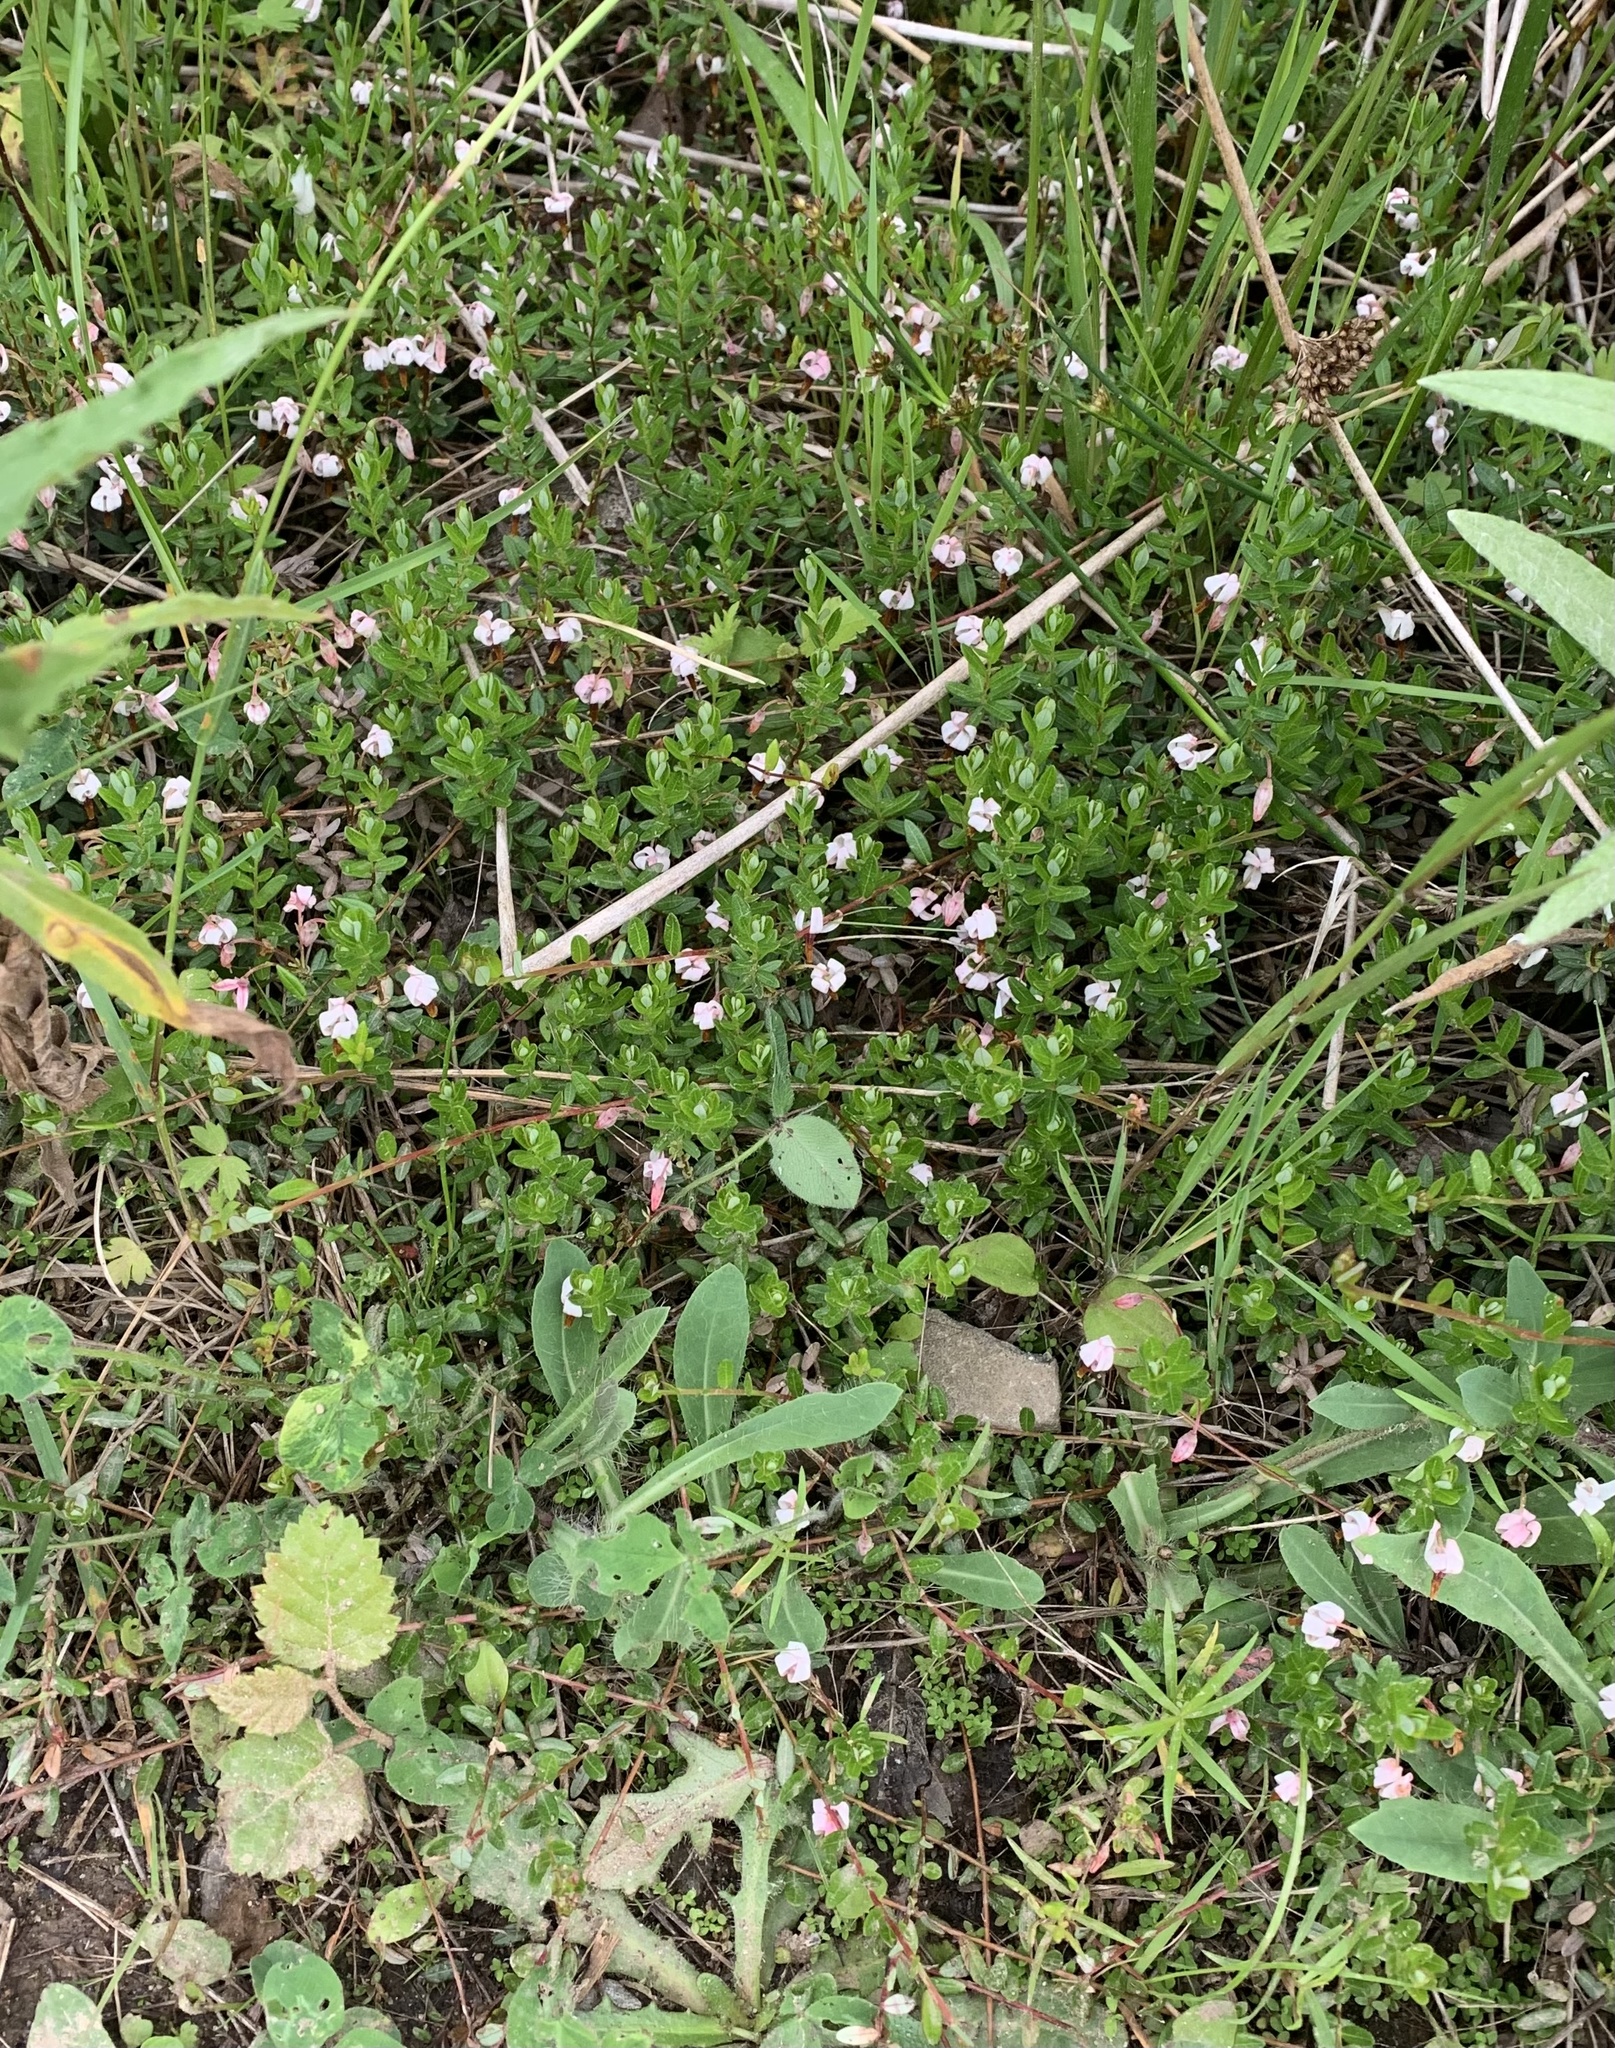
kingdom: Plantae
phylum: Tracheophyta
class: Magnoliopsida
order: Ericales
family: Ericaceae
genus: Vaccinium
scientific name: Vaccinium macrocarpon
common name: American cranberry
